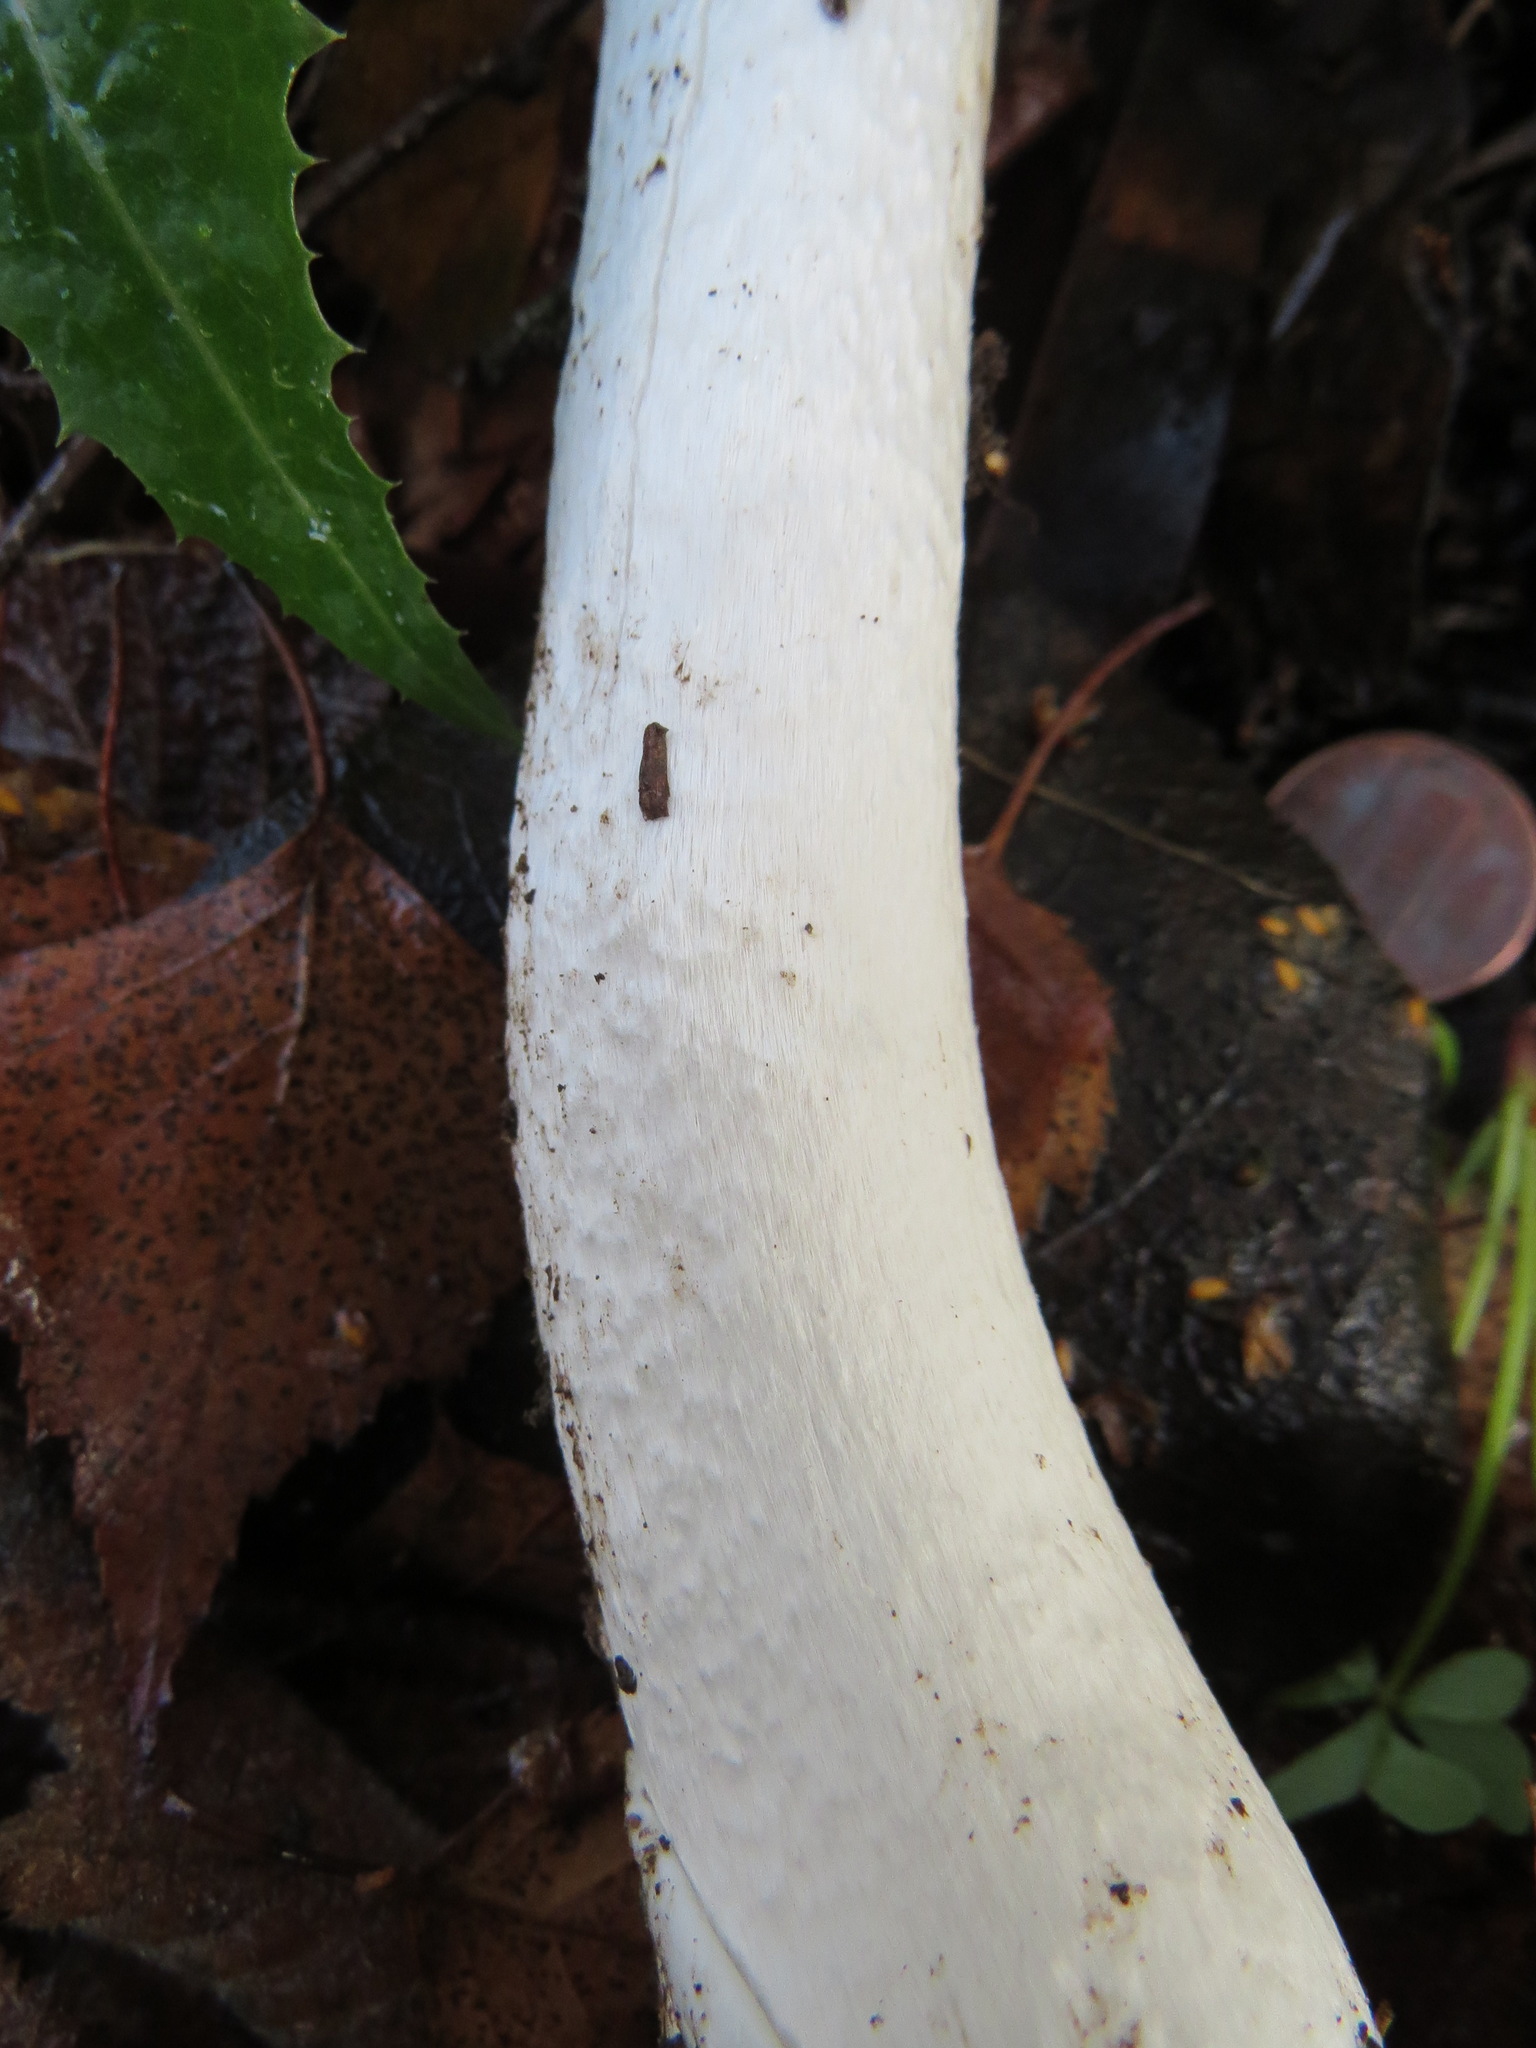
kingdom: Fungi
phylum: Basidiomycota
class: Agaricomycetes
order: Agaricales
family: Amanitaceae
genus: Amanita
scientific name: Amanita ocreata
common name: Western destroying angel
